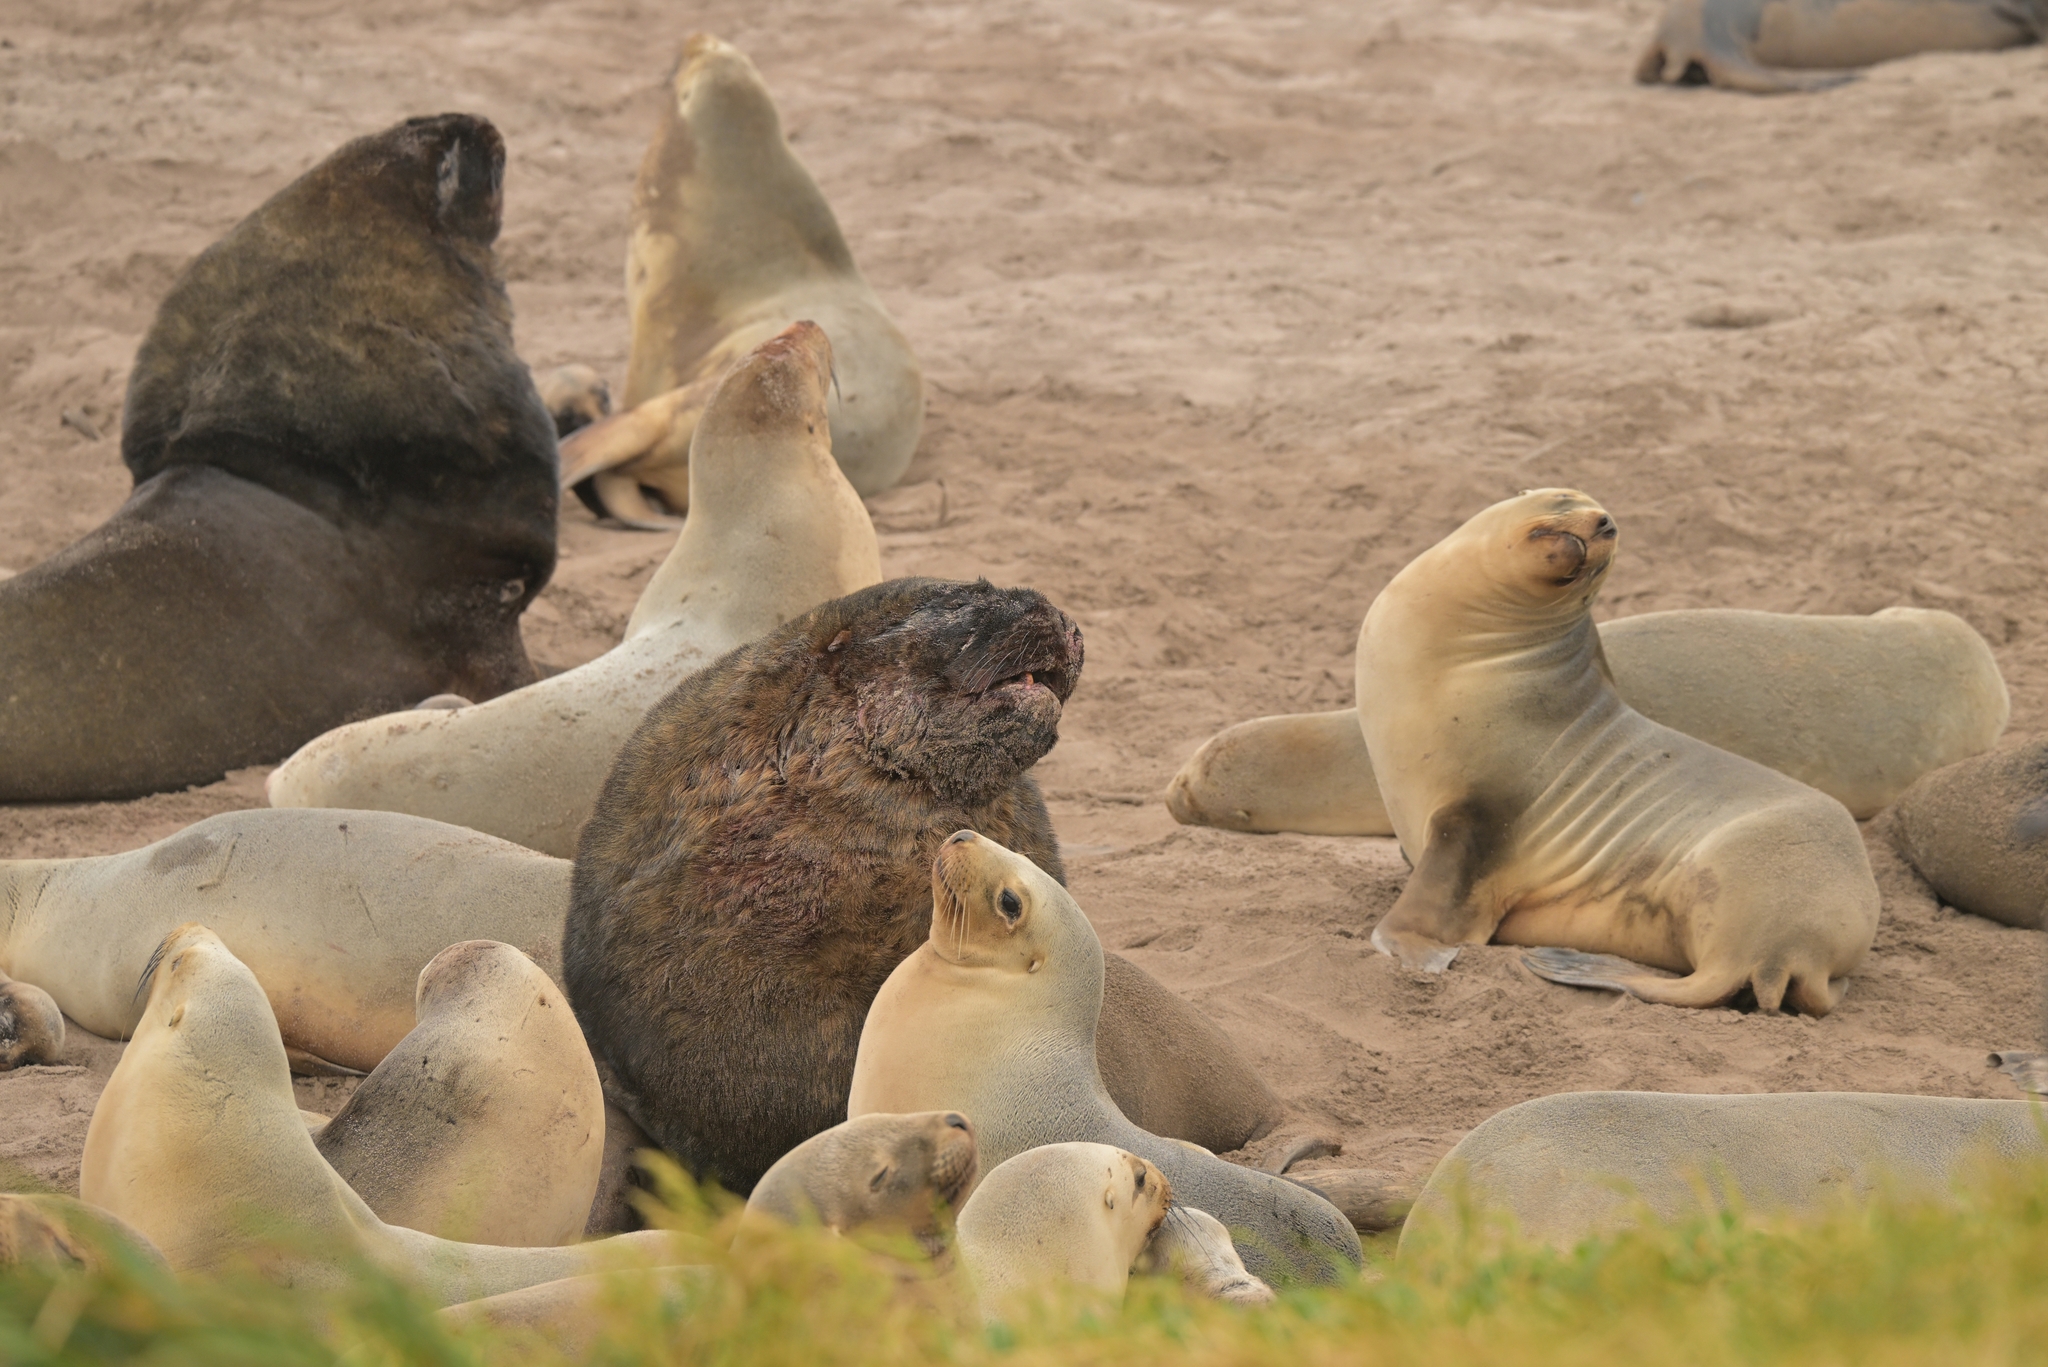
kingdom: Animalia
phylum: Chordata
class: Mammalia
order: Carnivora
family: Otariidae
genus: Phocarctos
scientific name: Phocarctos hookeri
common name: New zealand sea lion
